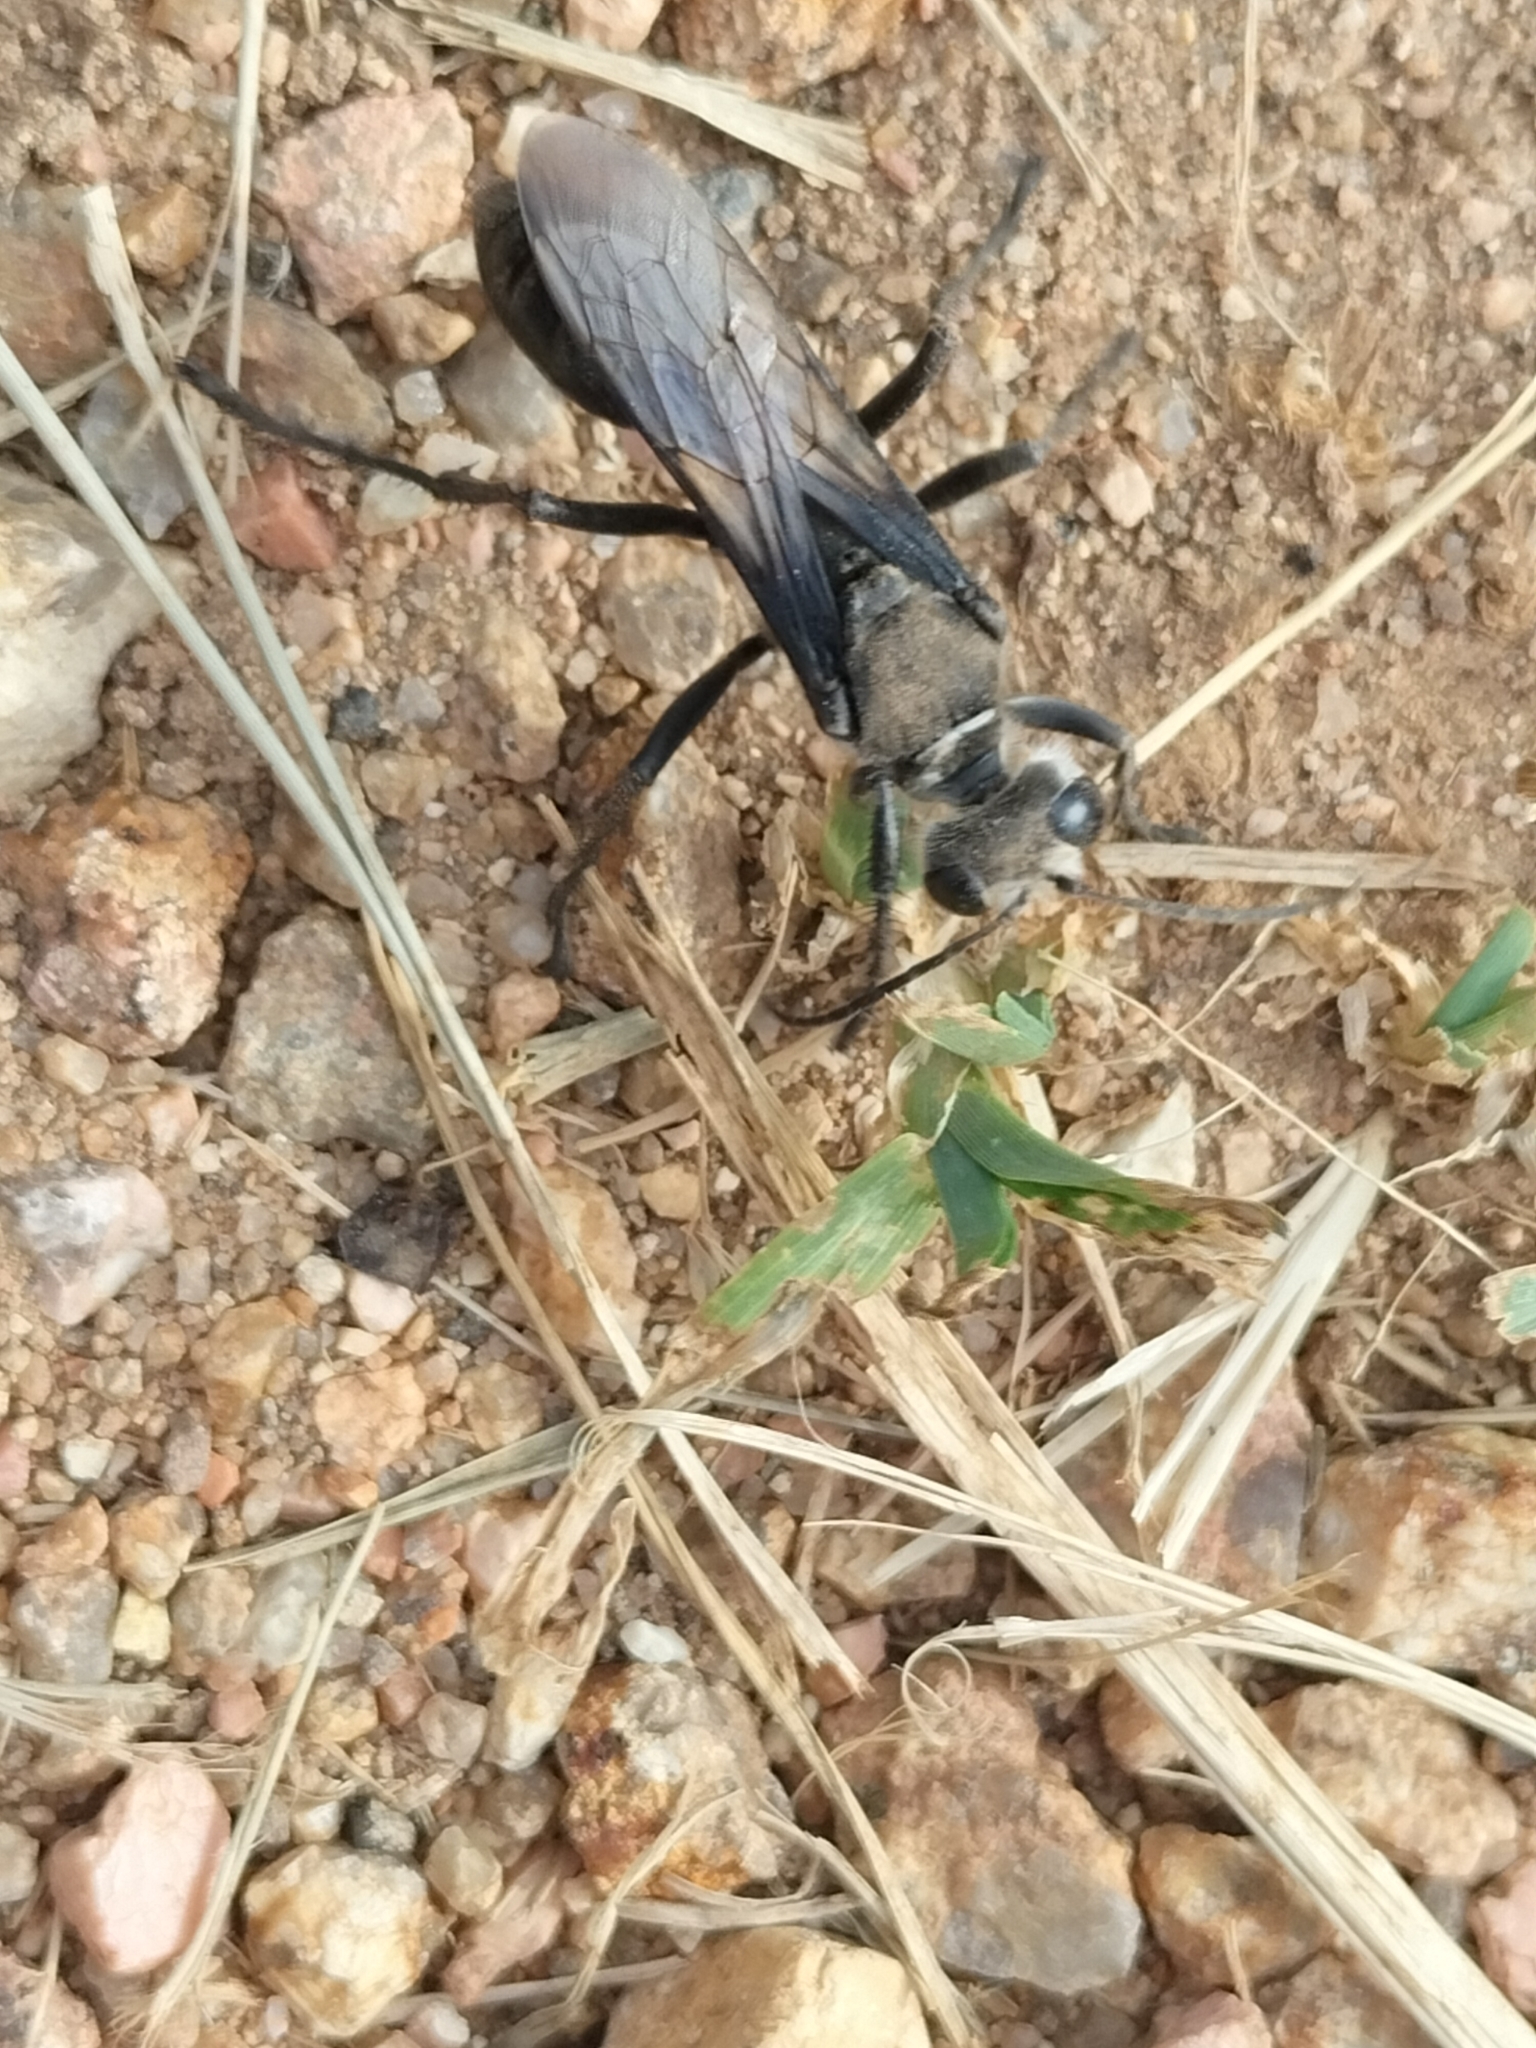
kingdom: Animalia
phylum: Arthropoda
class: Insecta
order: Hymenoptera
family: Sphecidae
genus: Sphex
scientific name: Sphex argentatus
